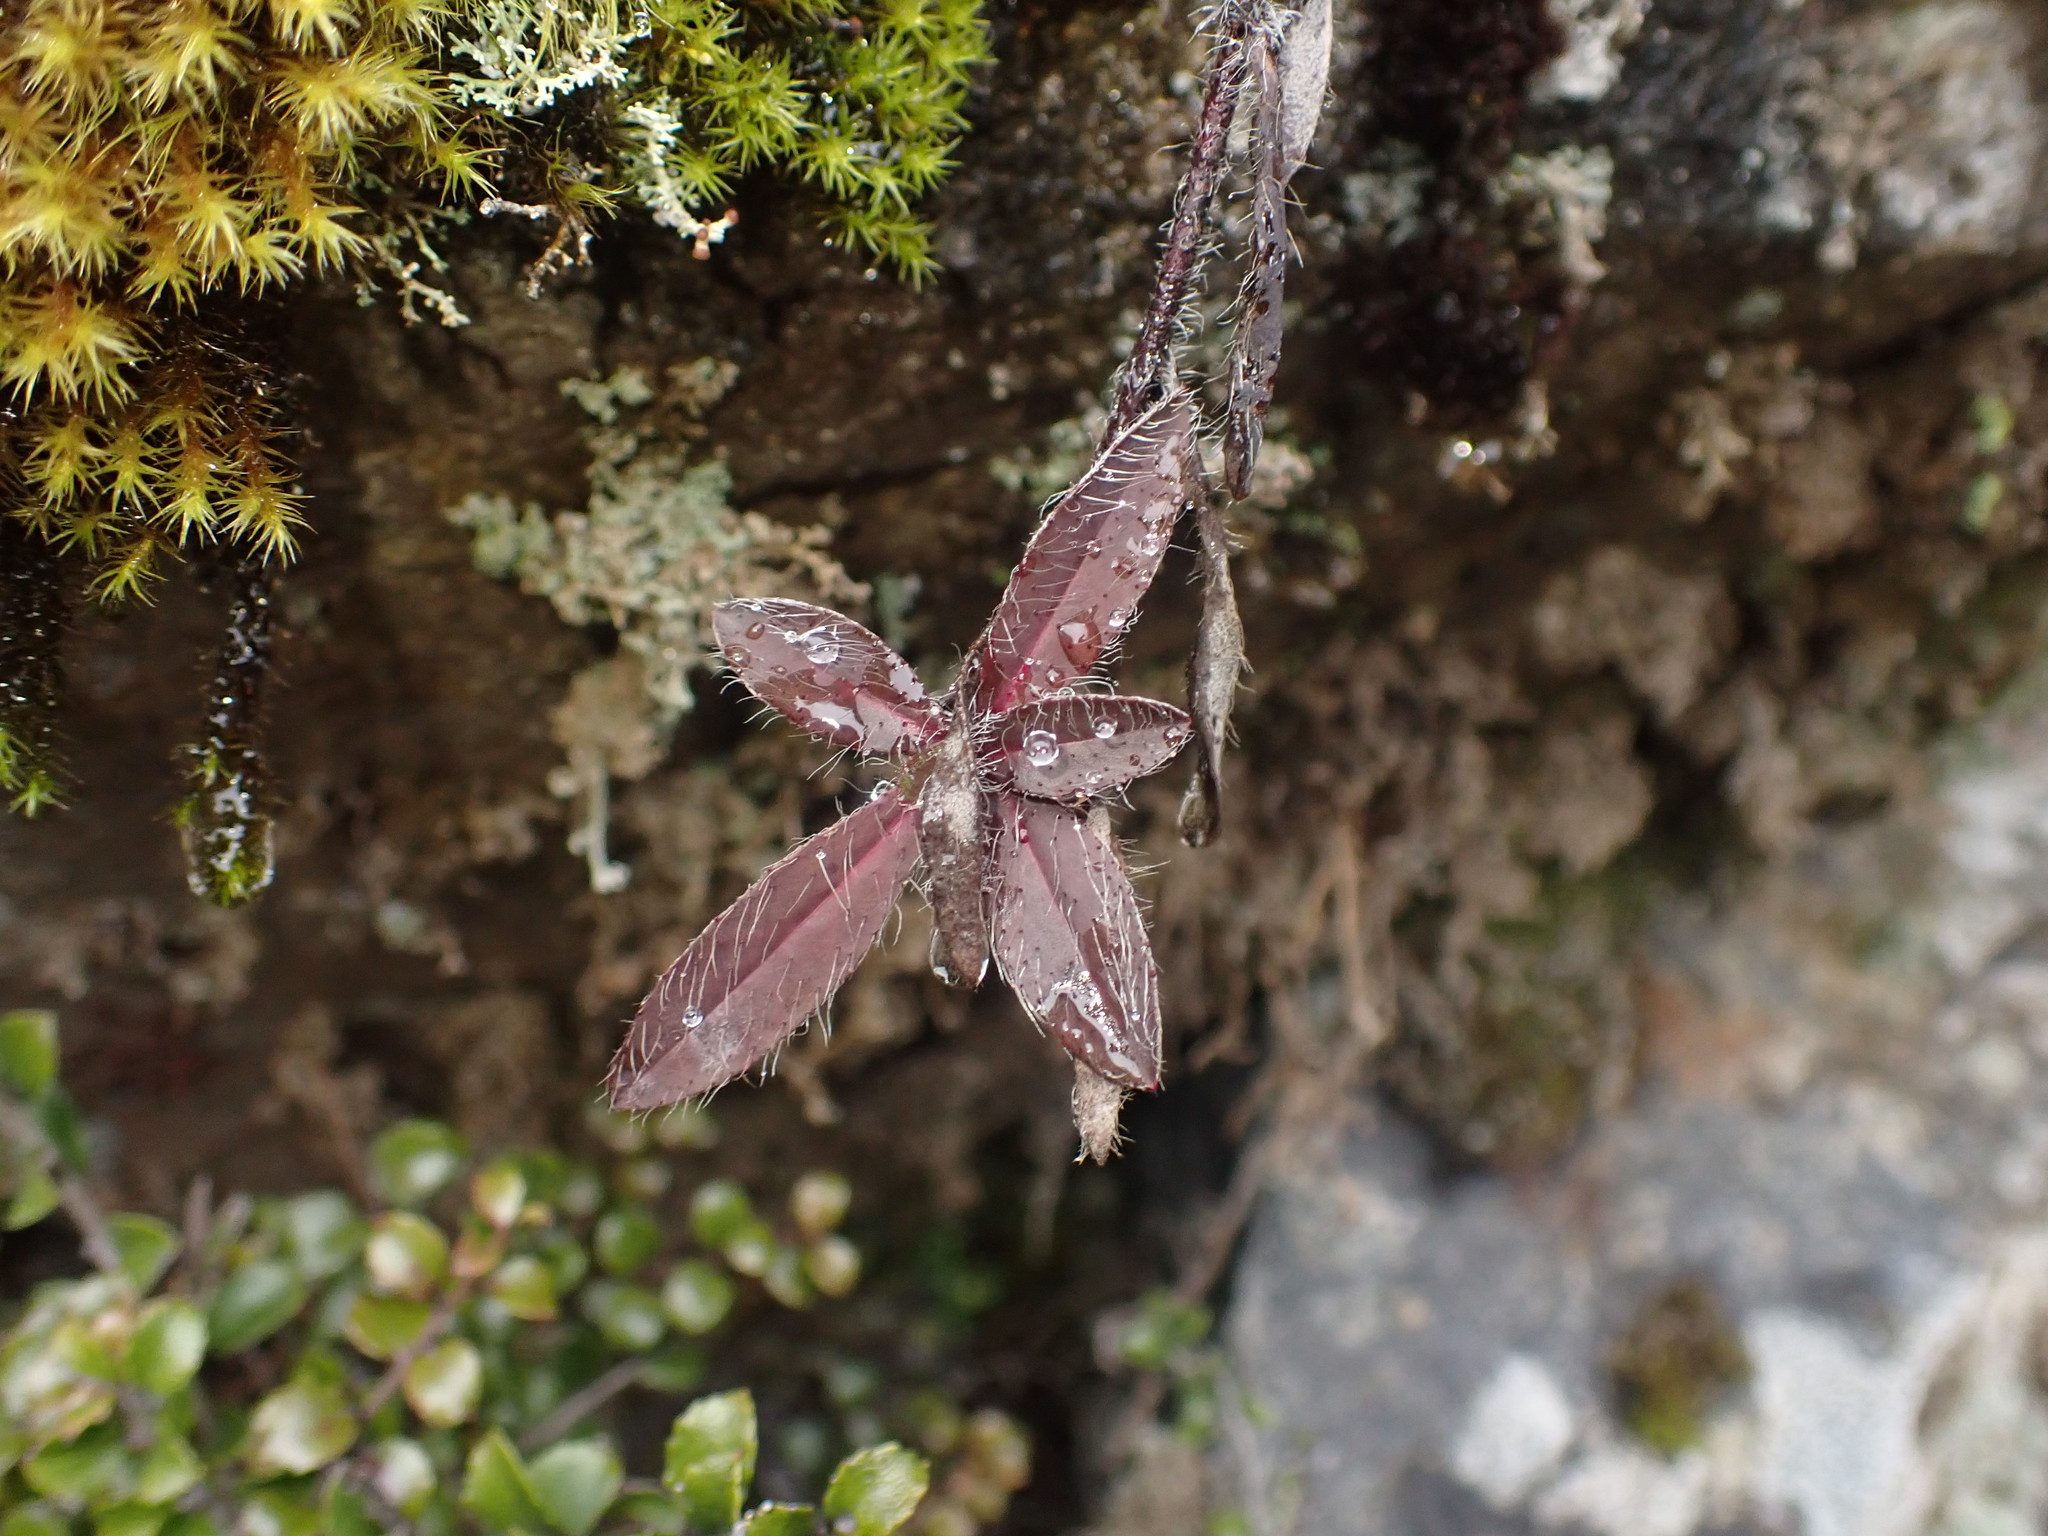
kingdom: Plantae
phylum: Tracheophyta
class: Magnoliopsida
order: Asterales
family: Asteraceae
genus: Pilosella
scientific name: Pilosella officinarum
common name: Mouse-ear hawkweed
